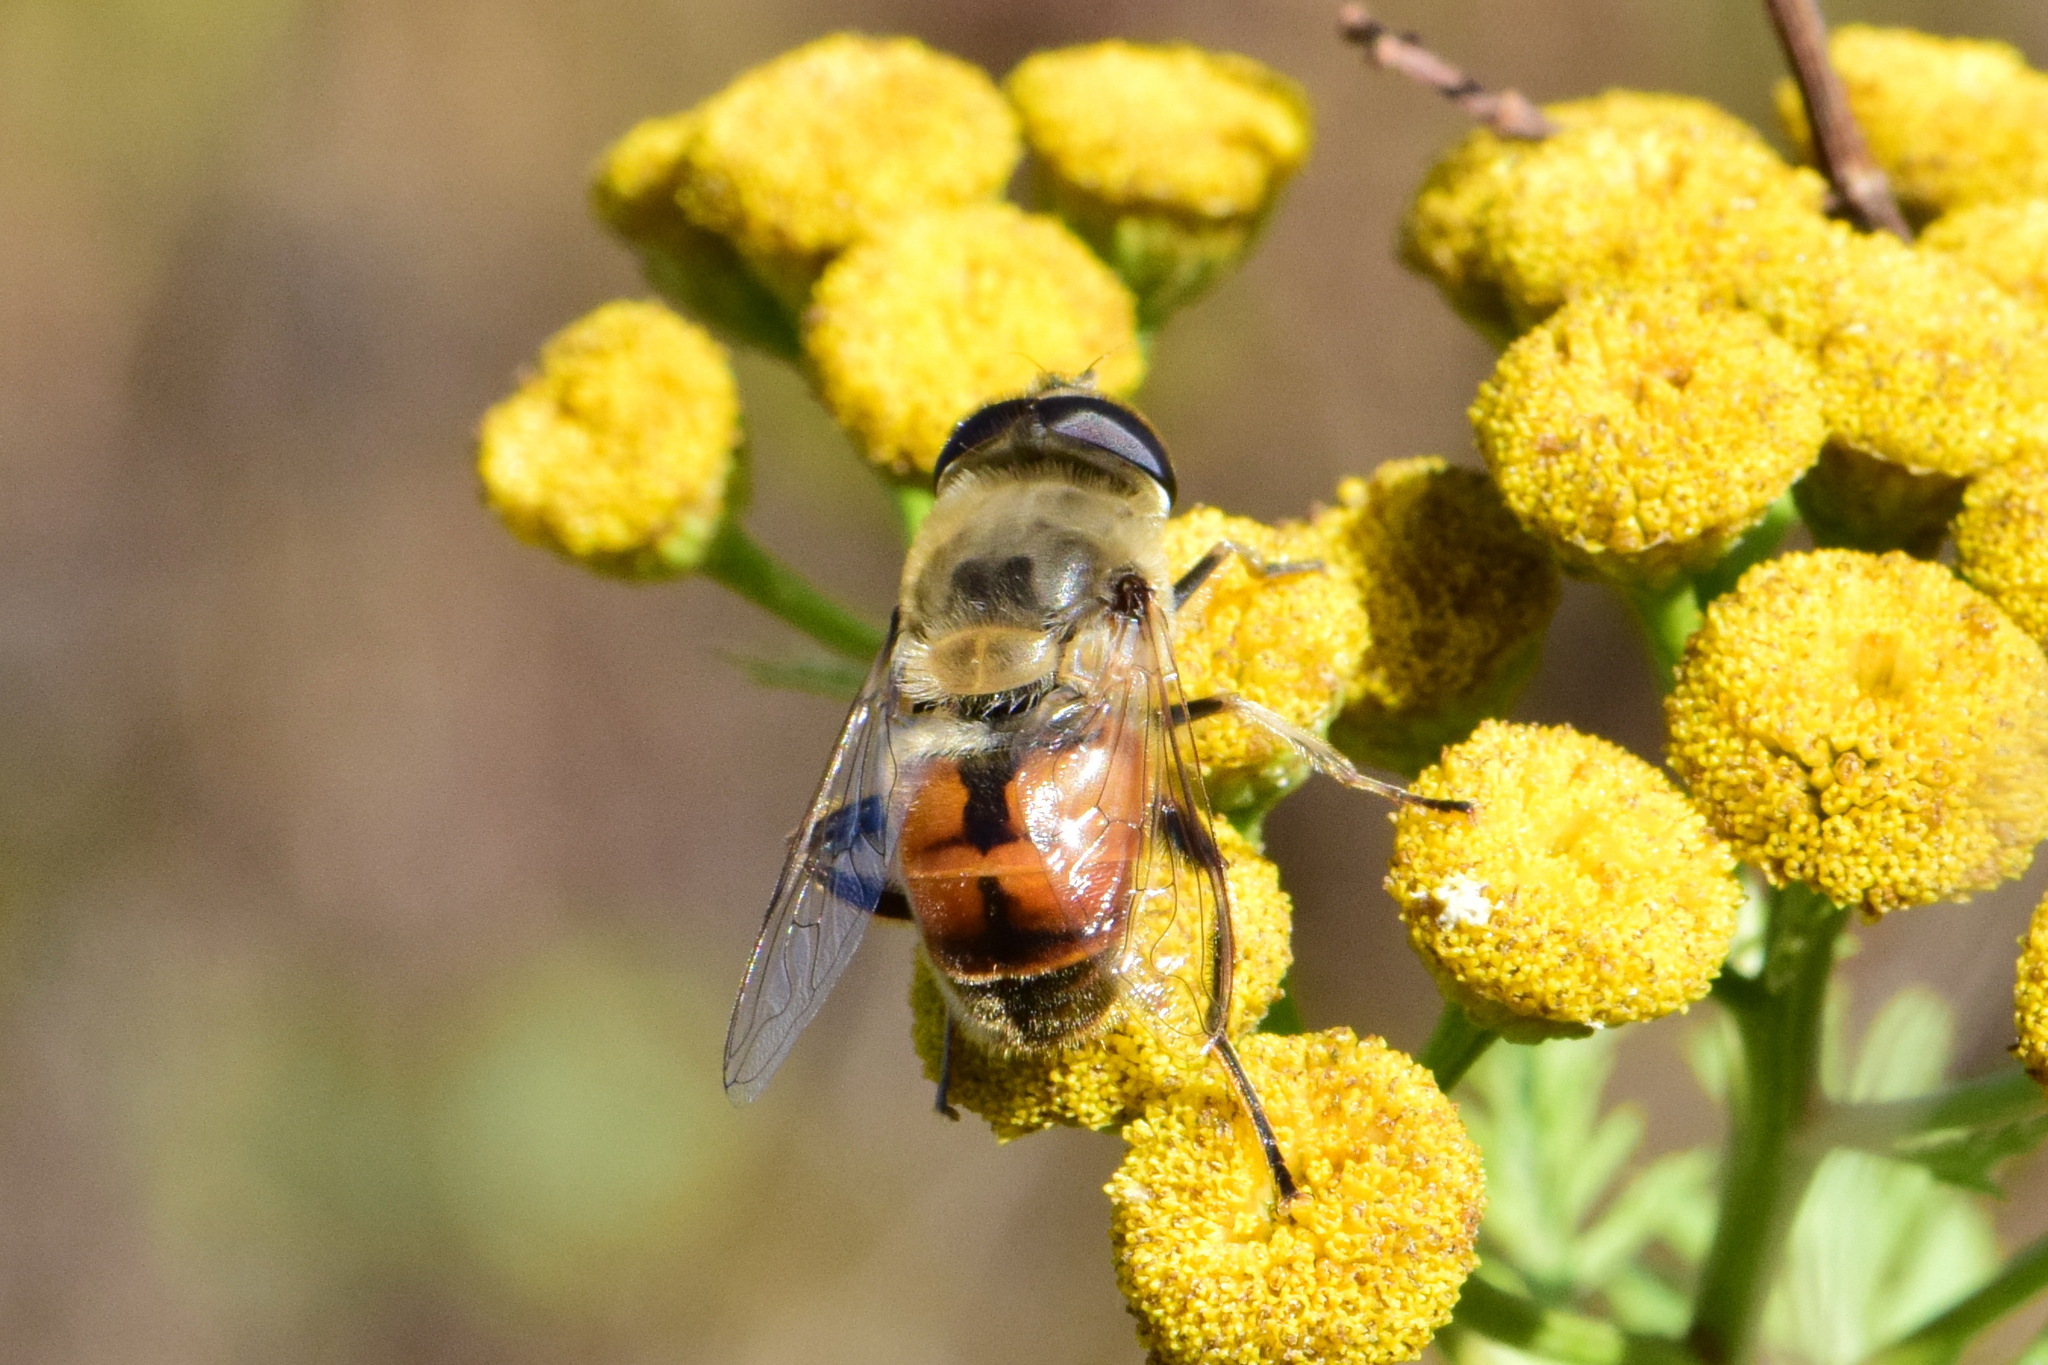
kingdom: Animalia
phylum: Arthropoda
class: Insecta
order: Diptera
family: Syrphidae
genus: Eristalis
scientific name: Eristalis tenax
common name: Drone fly
